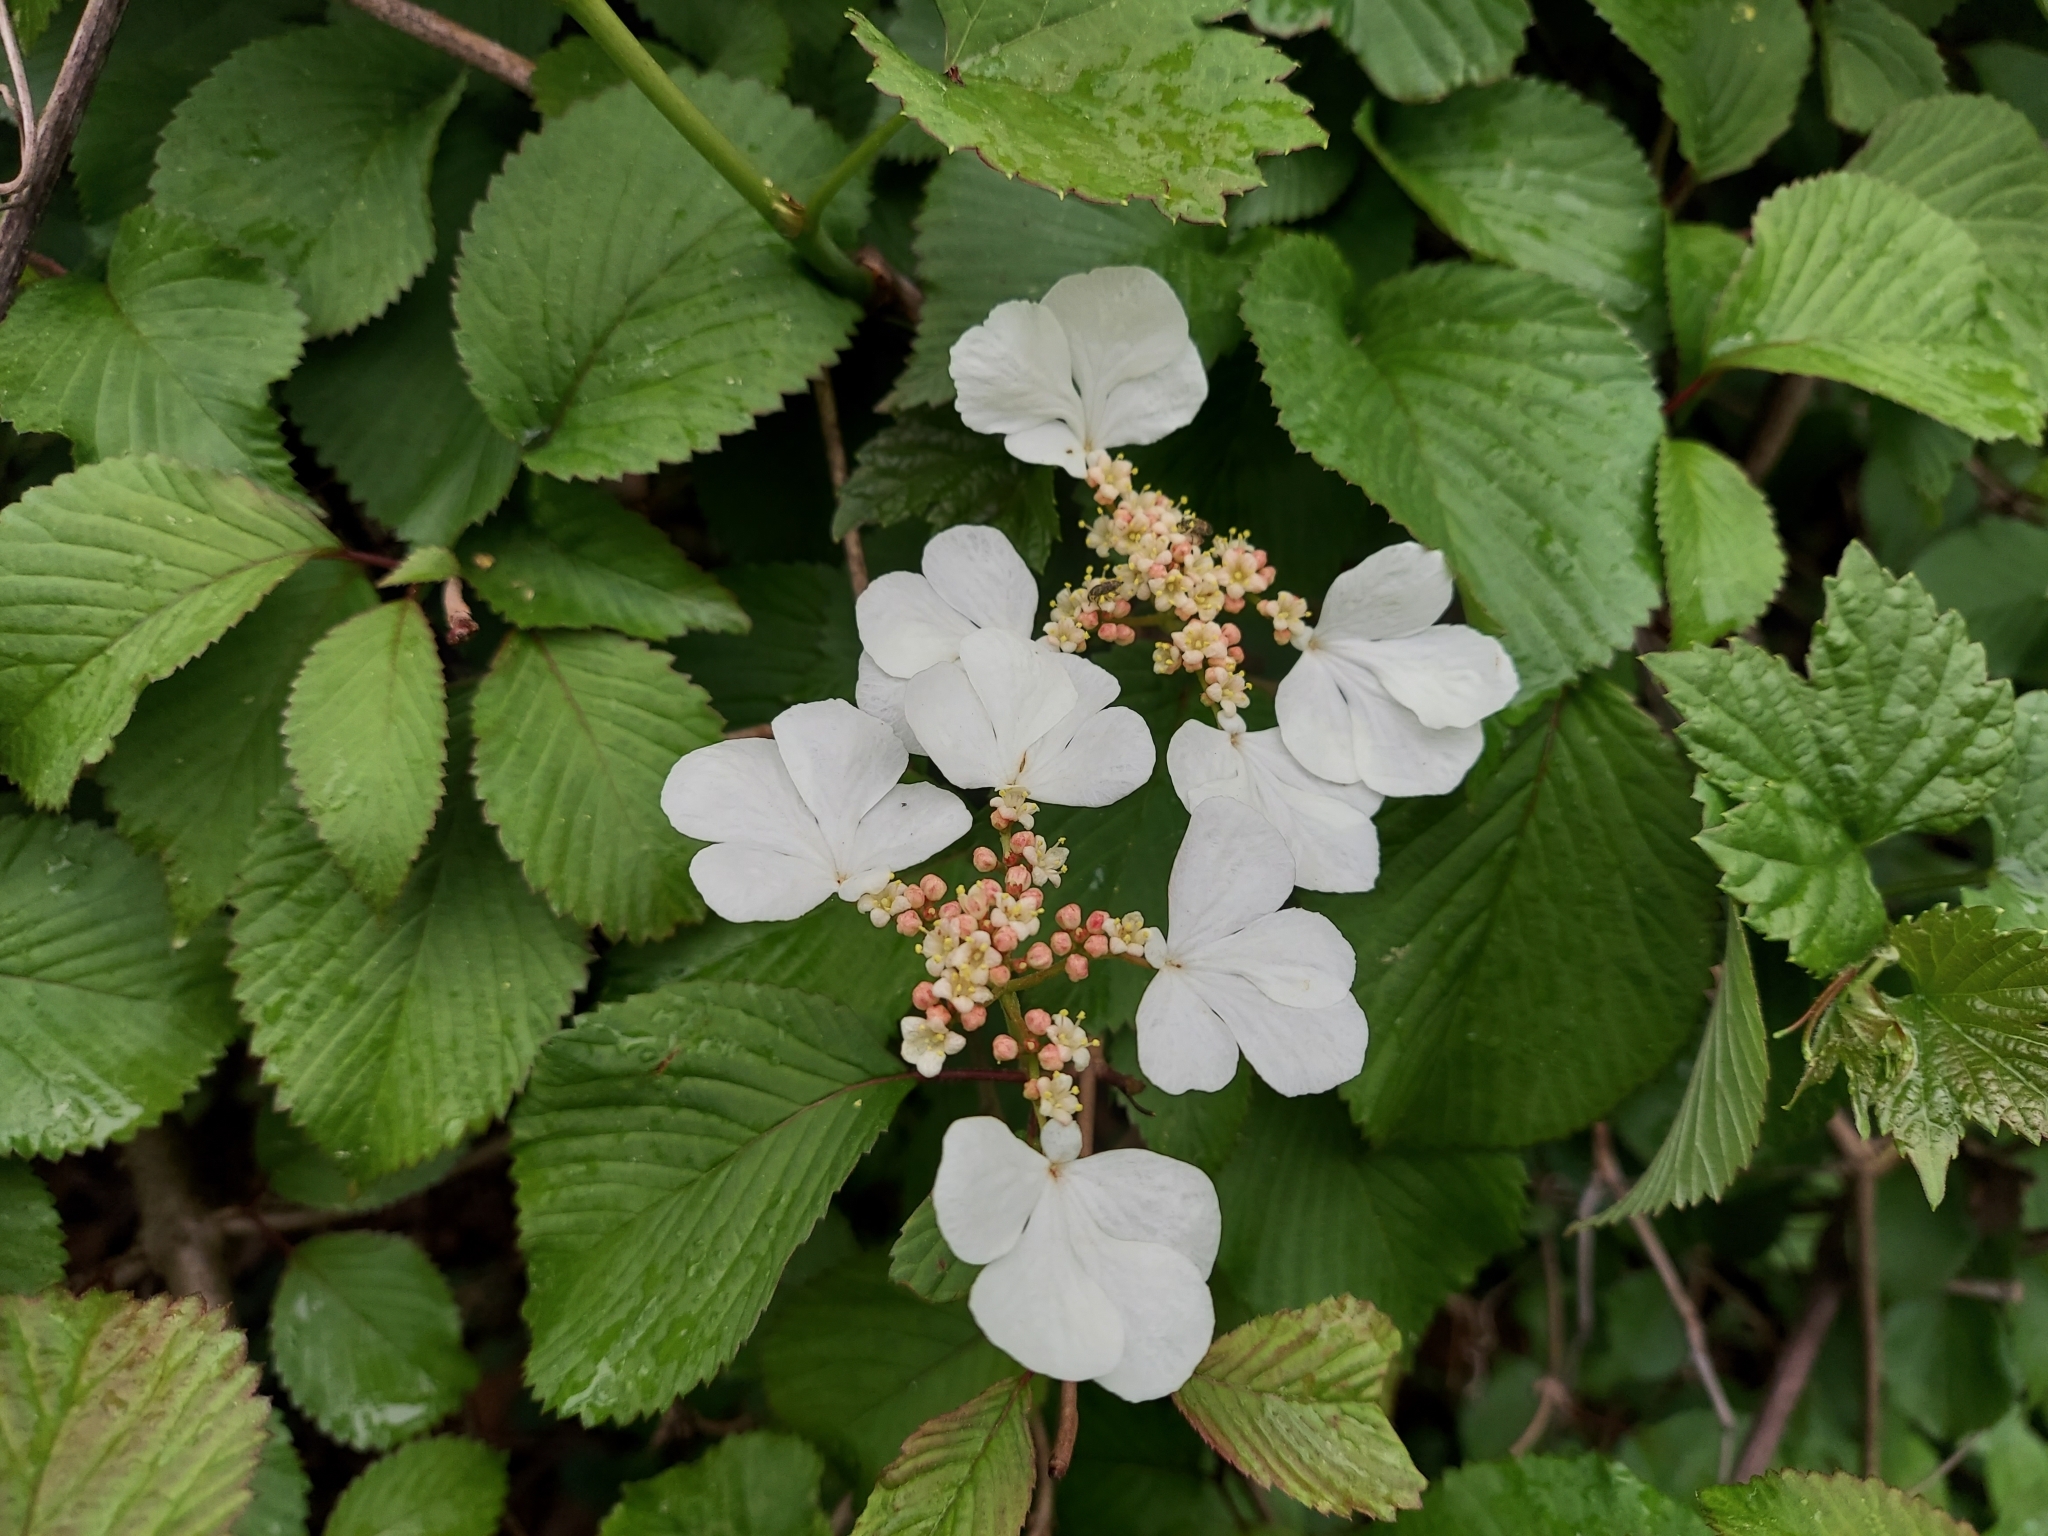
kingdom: Plantae
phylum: Tracheophyta
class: Magnoliopsida
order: Dipsacales
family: Viburnaceae
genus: Viburnum
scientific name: Viburnum plicatum
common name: Japanese snowball
